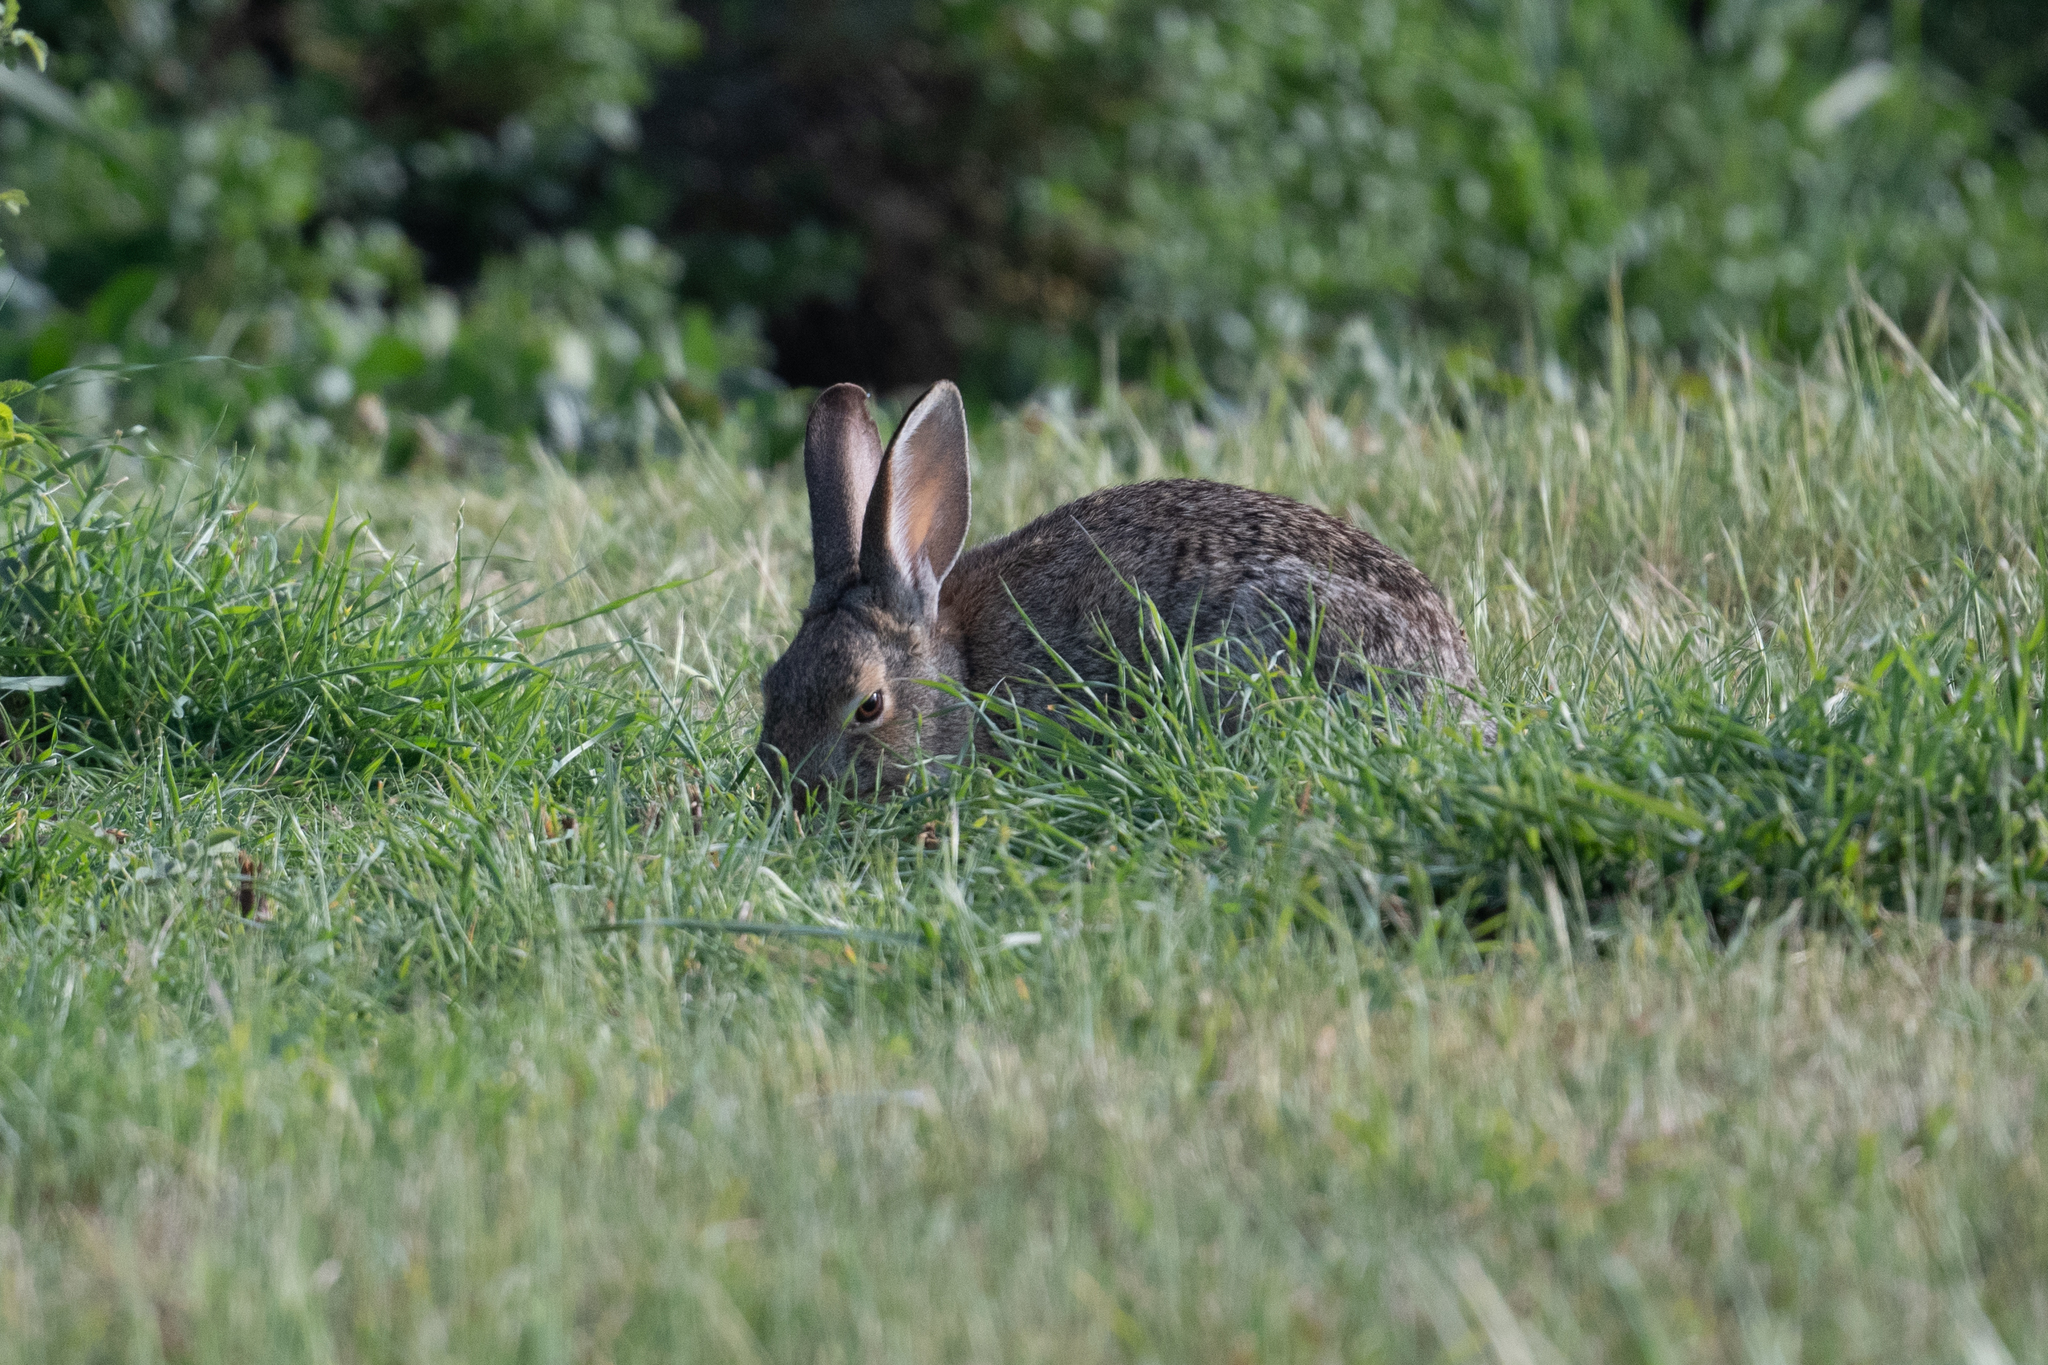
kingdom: Animalia
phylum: Chordata
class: Mammalia
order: Lagomorpha
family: Leporidae
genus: Sylvilagus
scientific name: Sylvilagus audubonii
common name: Desert cottontail
